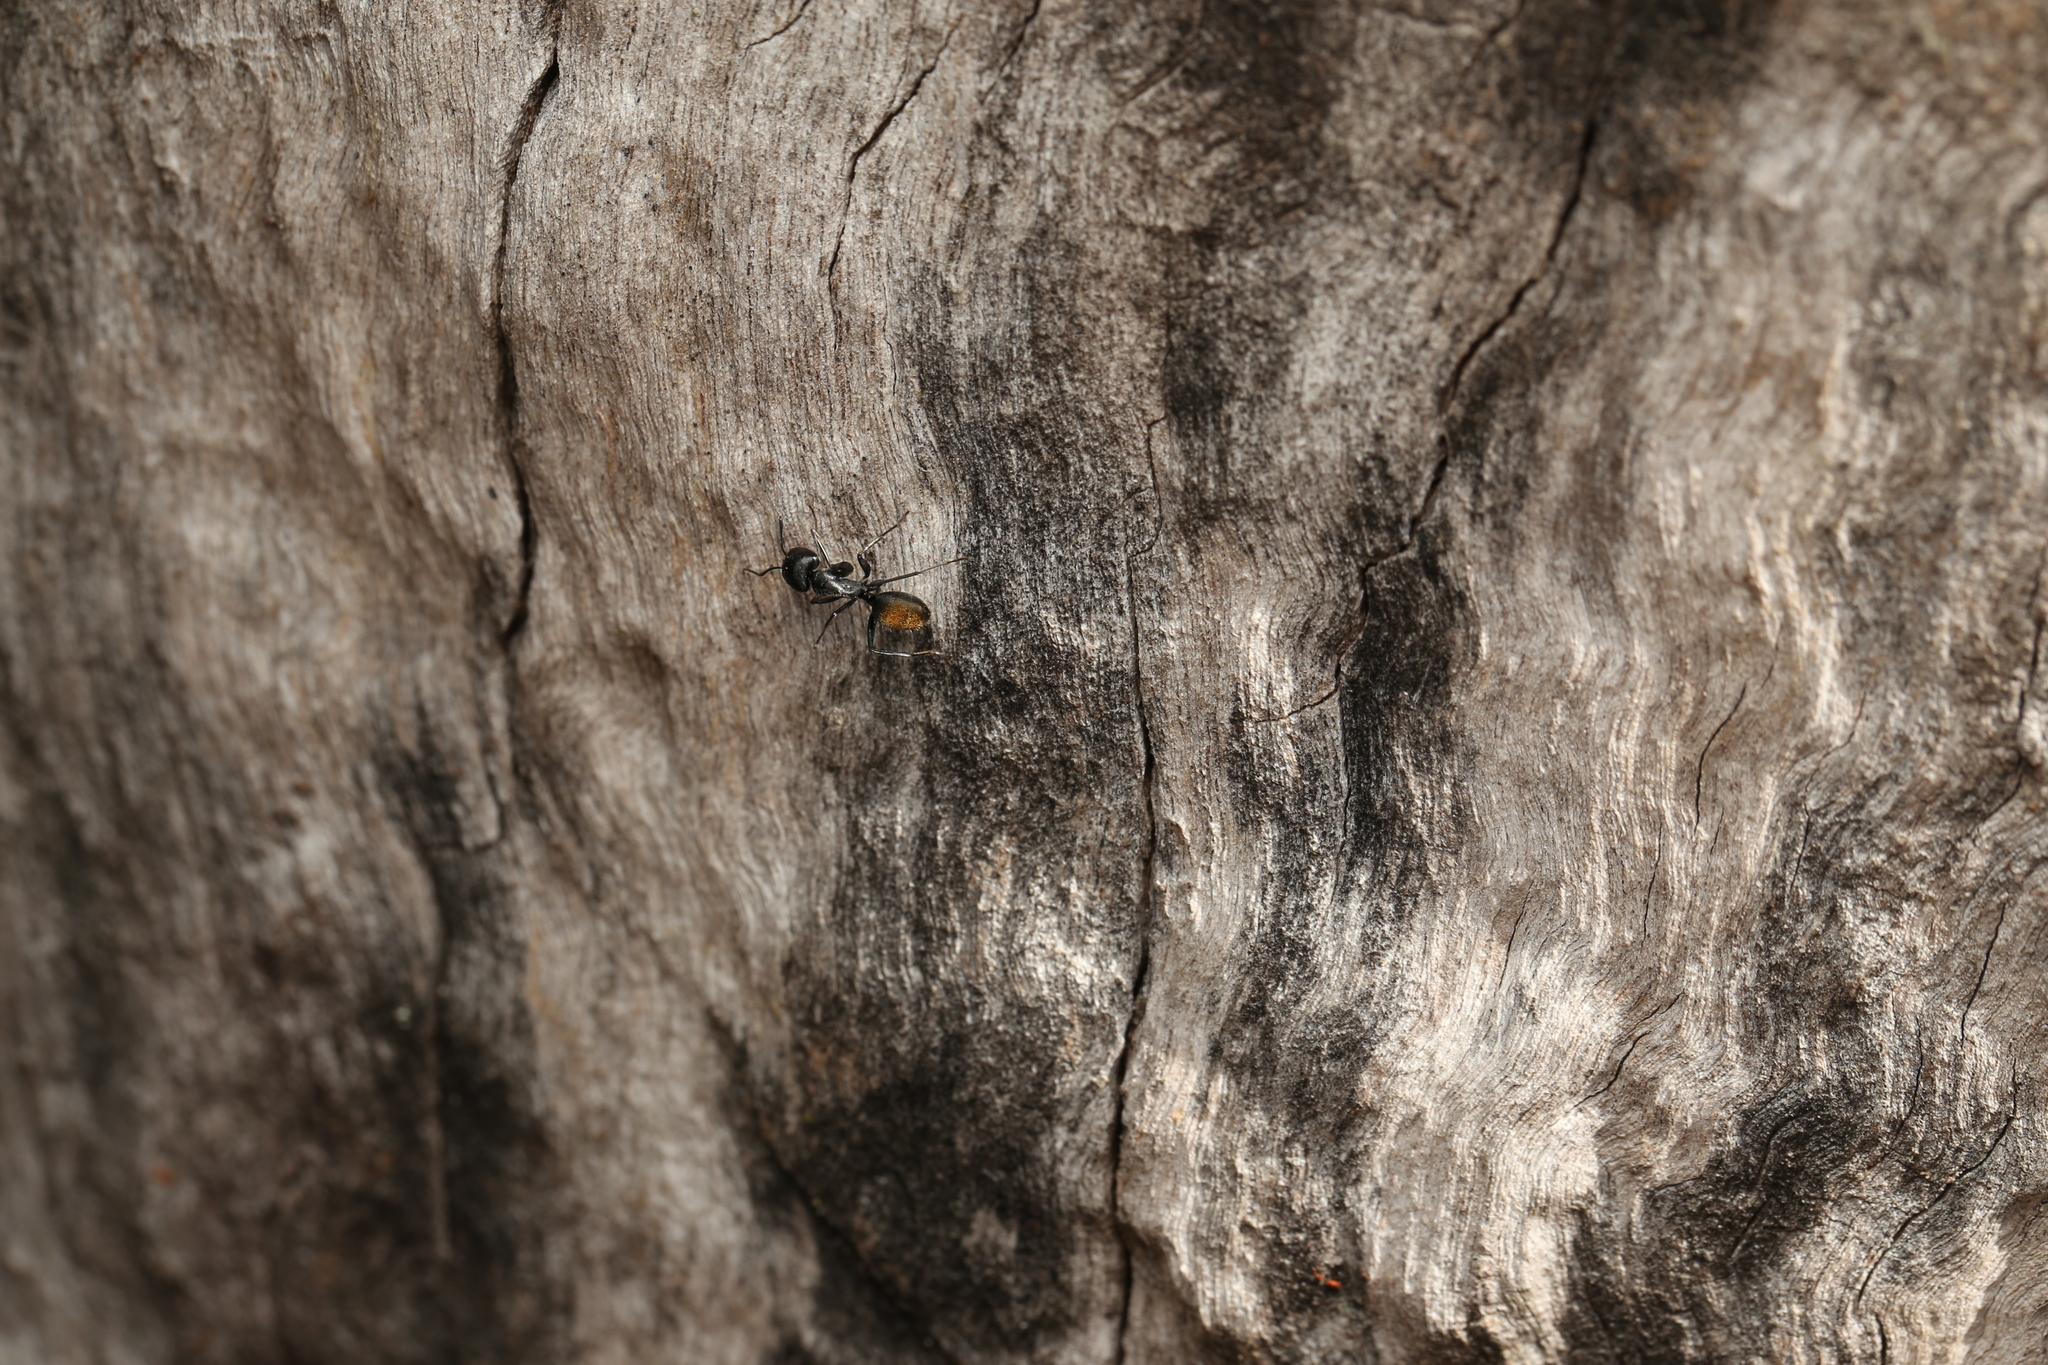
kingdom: Animalia
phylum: Arthropoda
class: Insecta
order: Hymenoptera
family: Formicidae
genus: Camponotus
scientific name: Camponotus aeneopilosus
